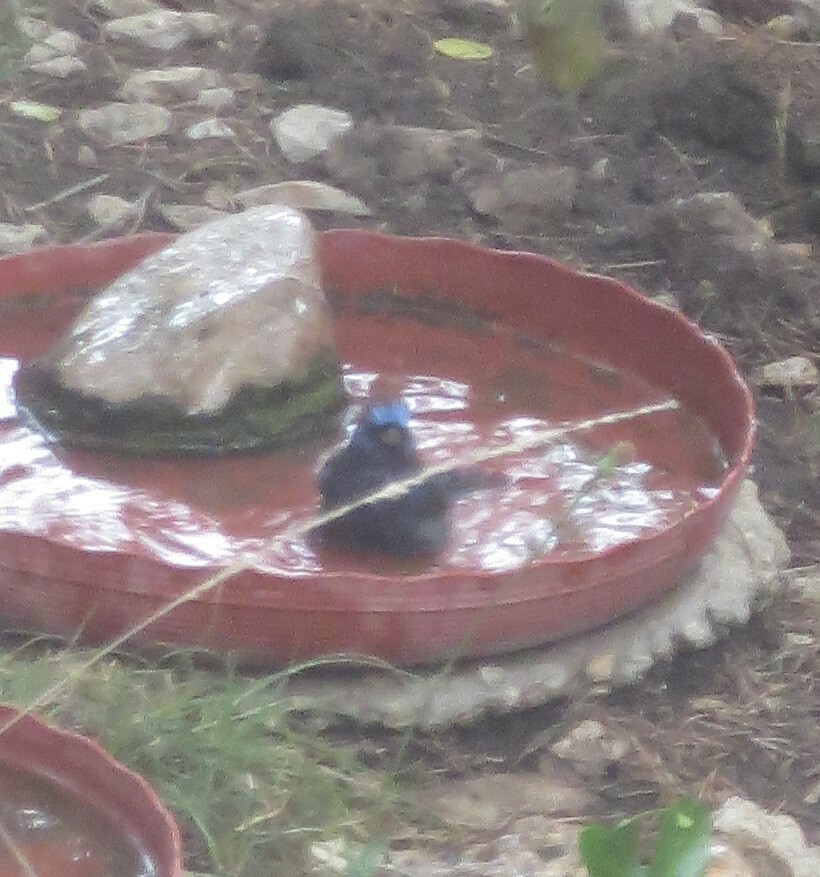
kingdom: Animalia
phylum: Chordata
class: Aves
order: Passeriformes
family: Cardinalidae
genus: Passerina
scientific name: Passerina versicolor
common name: Varied bunting
